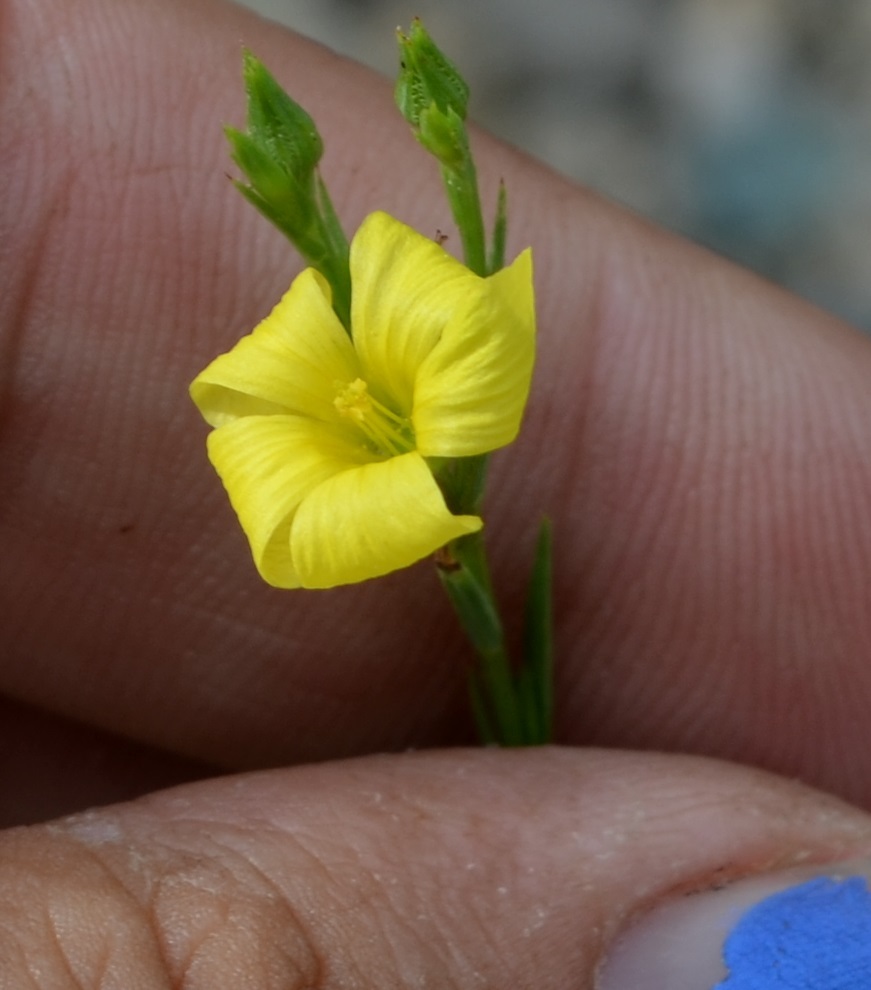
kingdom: Plantae
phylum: Tracheophyta
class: Magnoliopsida
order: Malpighiales
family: Linaceae
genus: Linum
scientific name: Linum sulcatum
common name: Grooved flax
